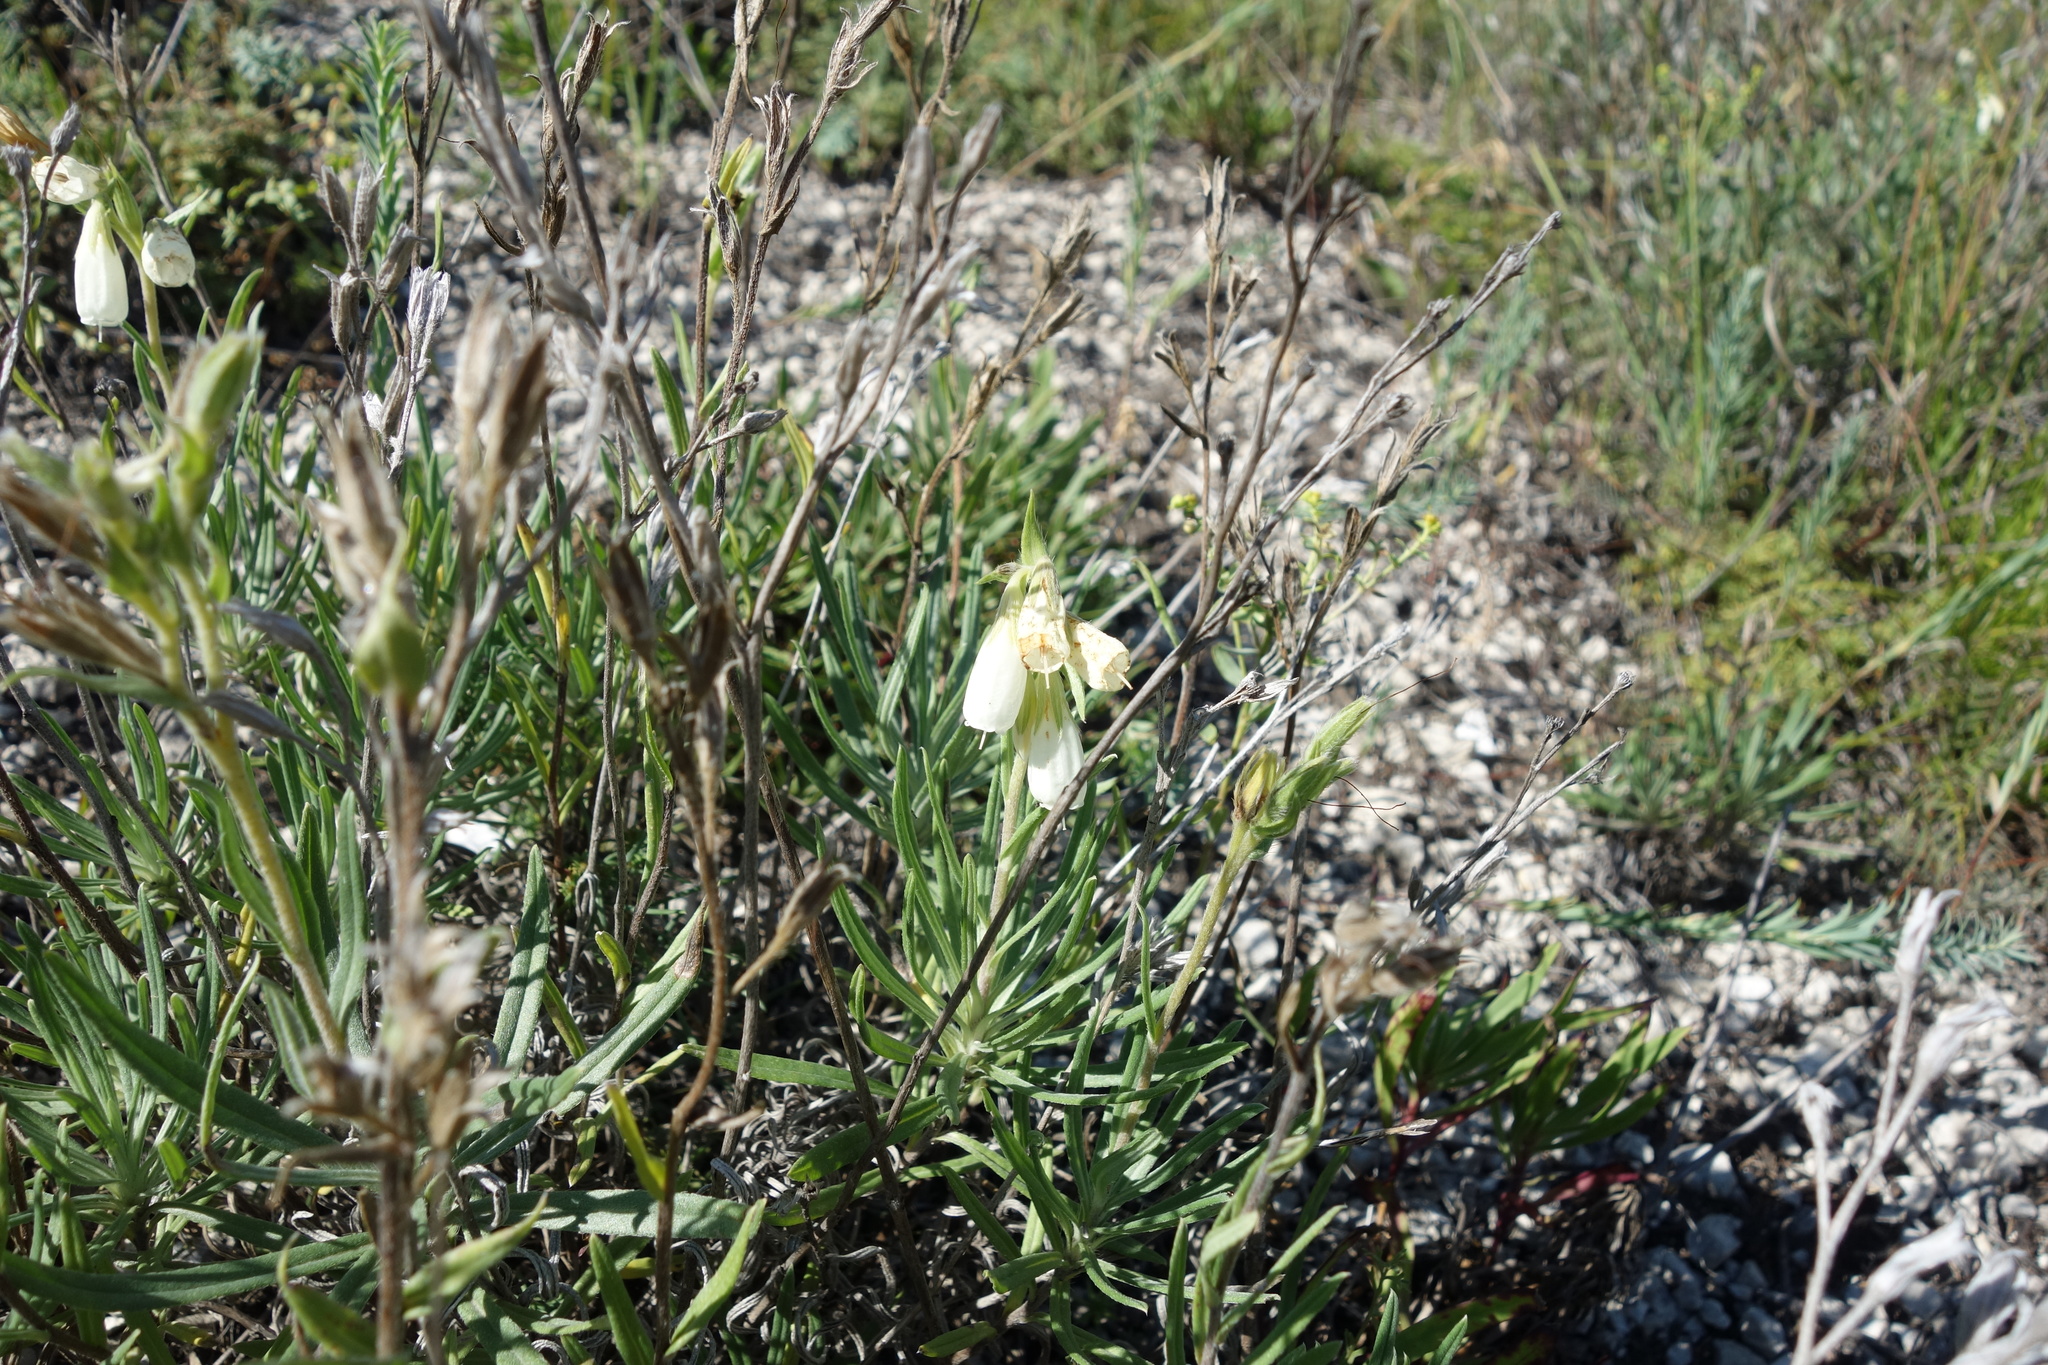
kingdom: Plantae
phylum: Tracheophyta
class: Magnoliopsida
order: Boraginales
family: Boraginaceae
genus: Onosma
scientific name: Onosma simplicissima
